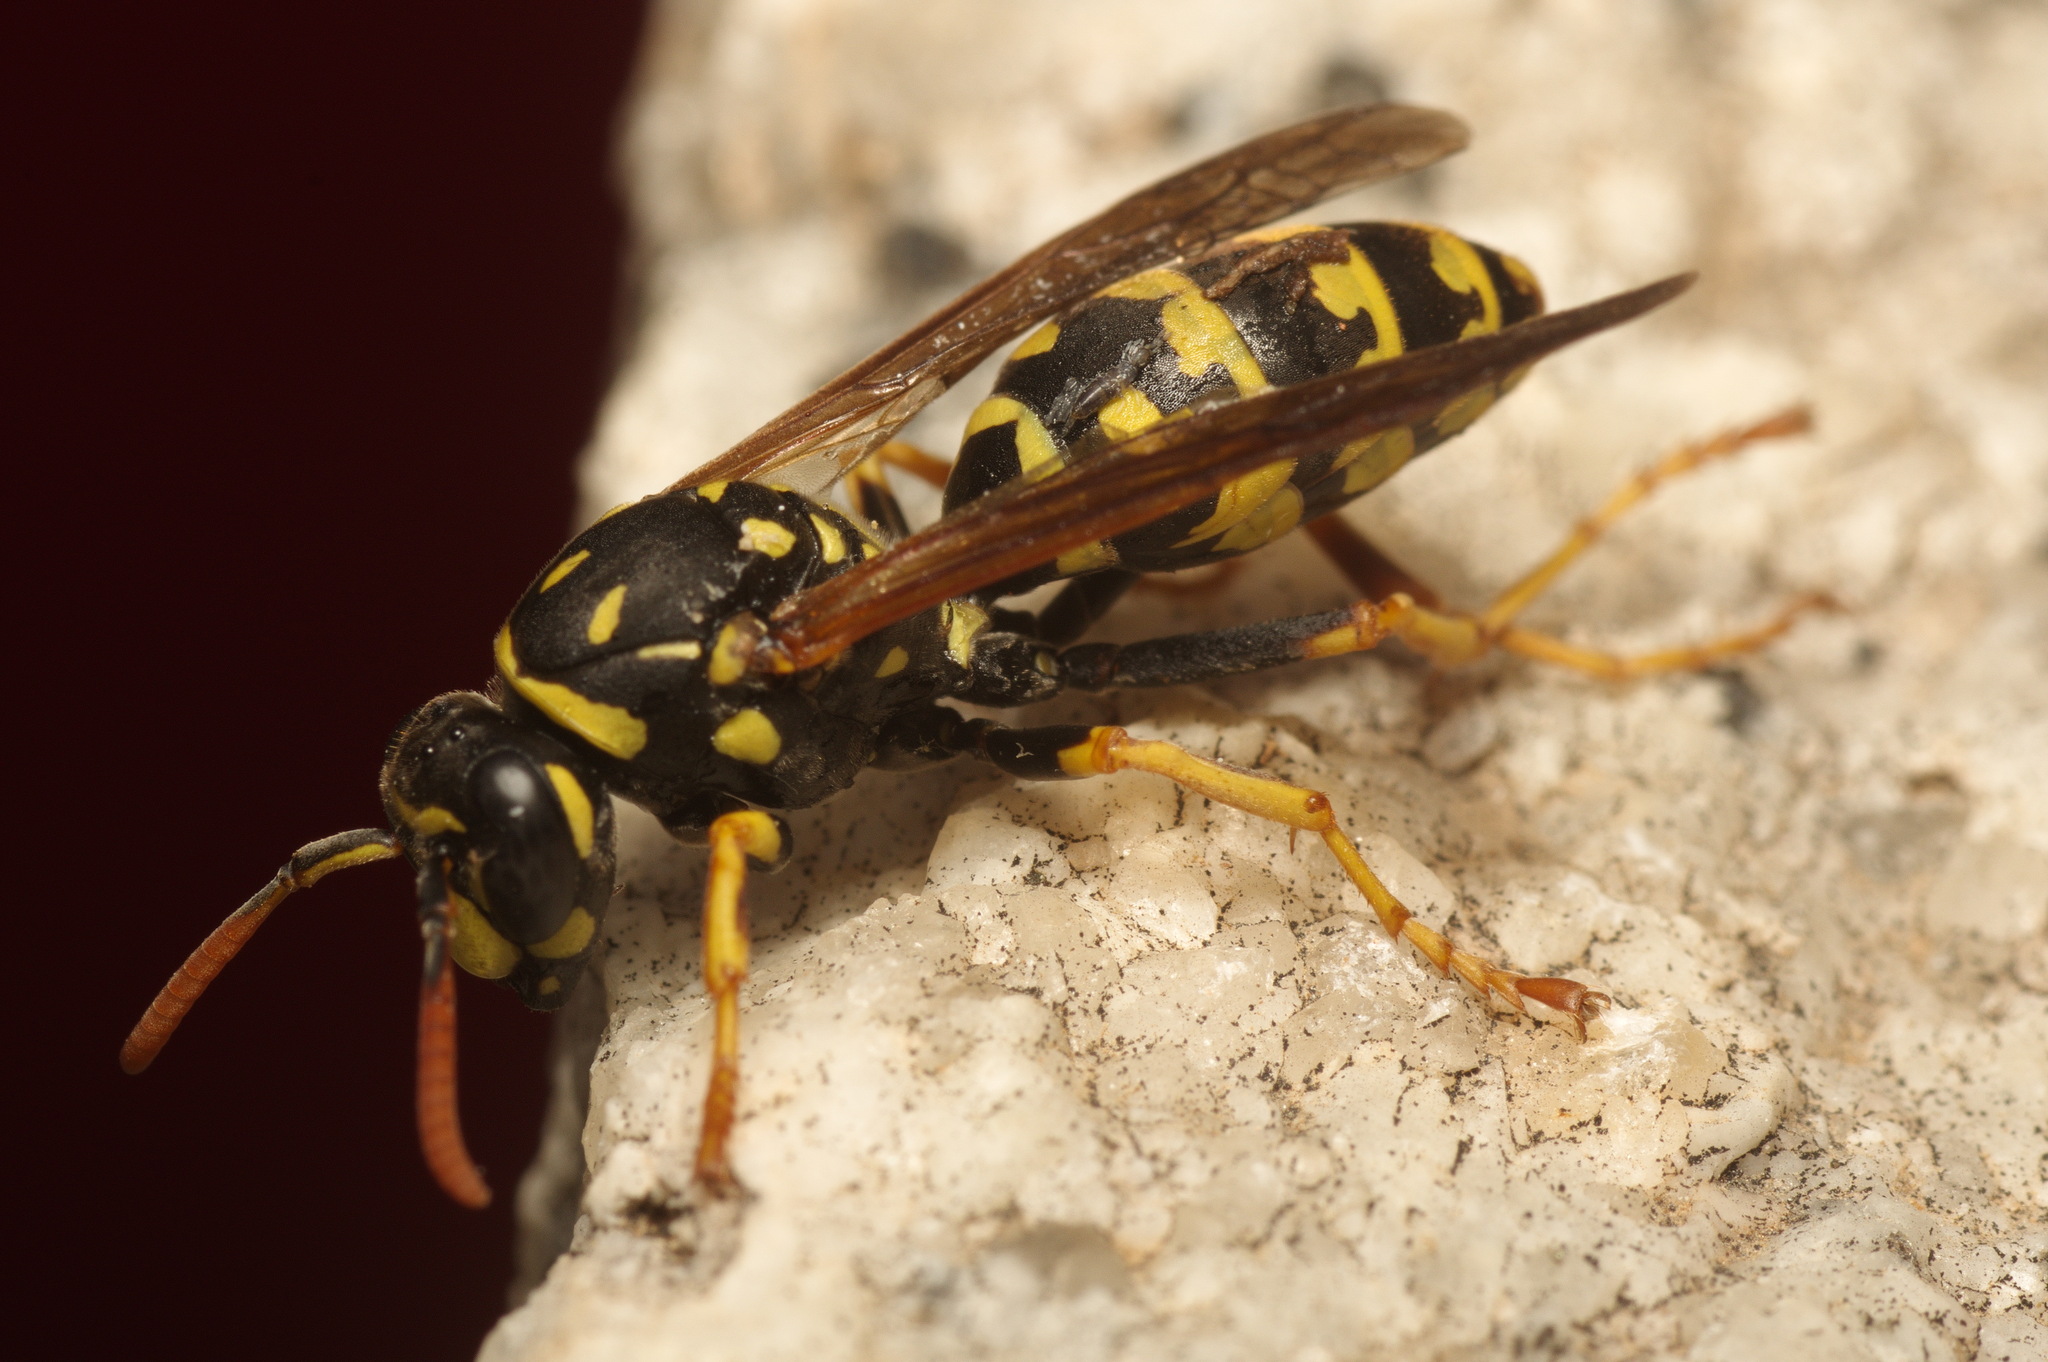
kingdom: Animalia
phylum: Arthropoda
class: Insecta
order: Hymenoptera
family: Eumenidae
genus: Polistes
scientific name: Polistes dominula
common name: Paper wasp
